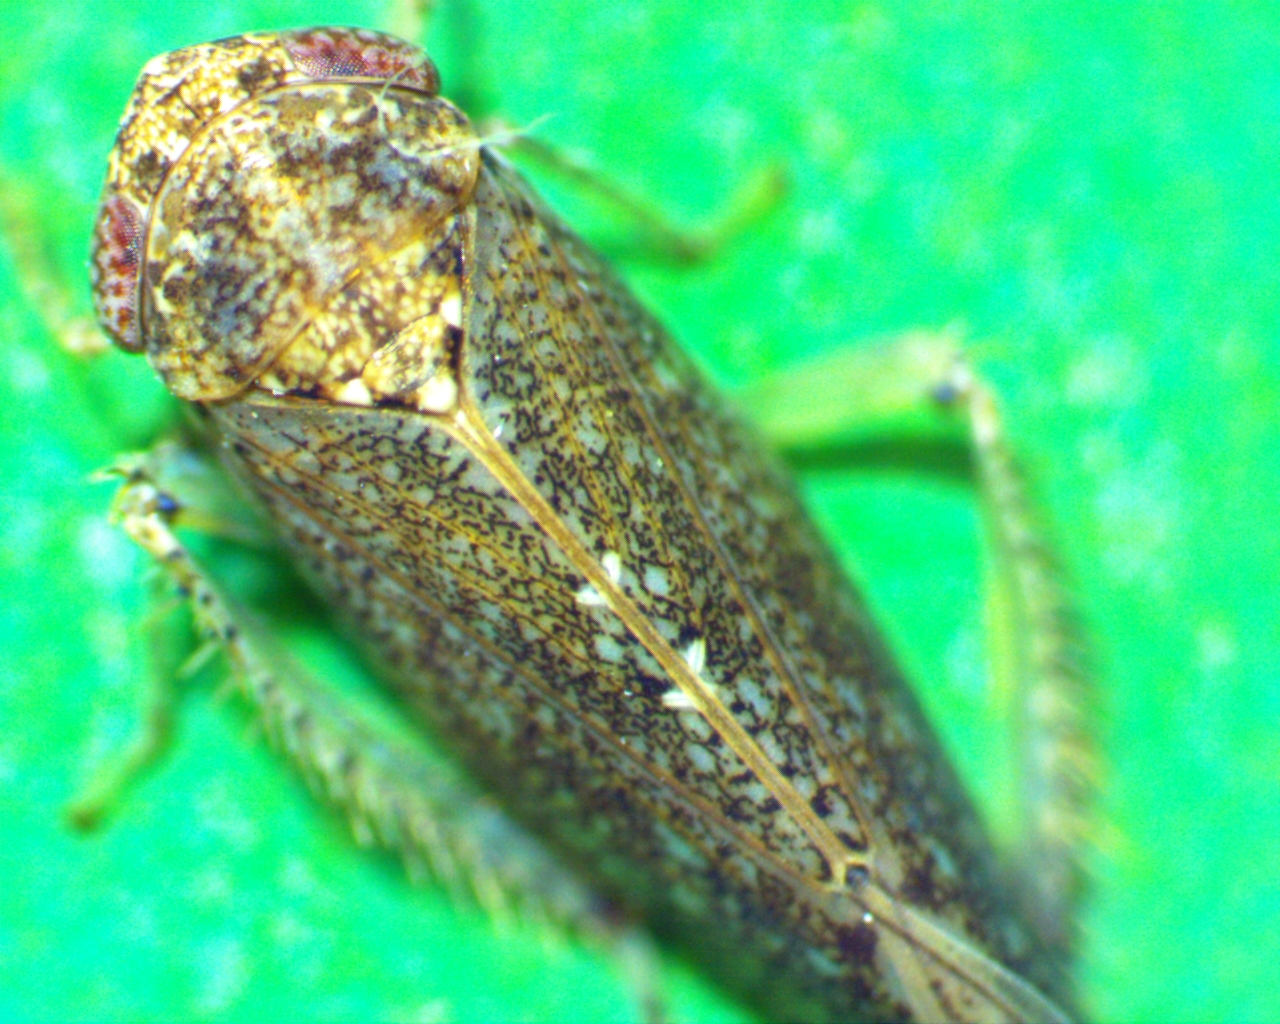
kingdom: Animalia
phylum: Arthropoda
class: Insecta
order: Hemiptera
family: Cicadellidae
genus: Paraphlepsius
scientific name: Paraphlepsius irroratus
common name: Brown speckled leafhopper
